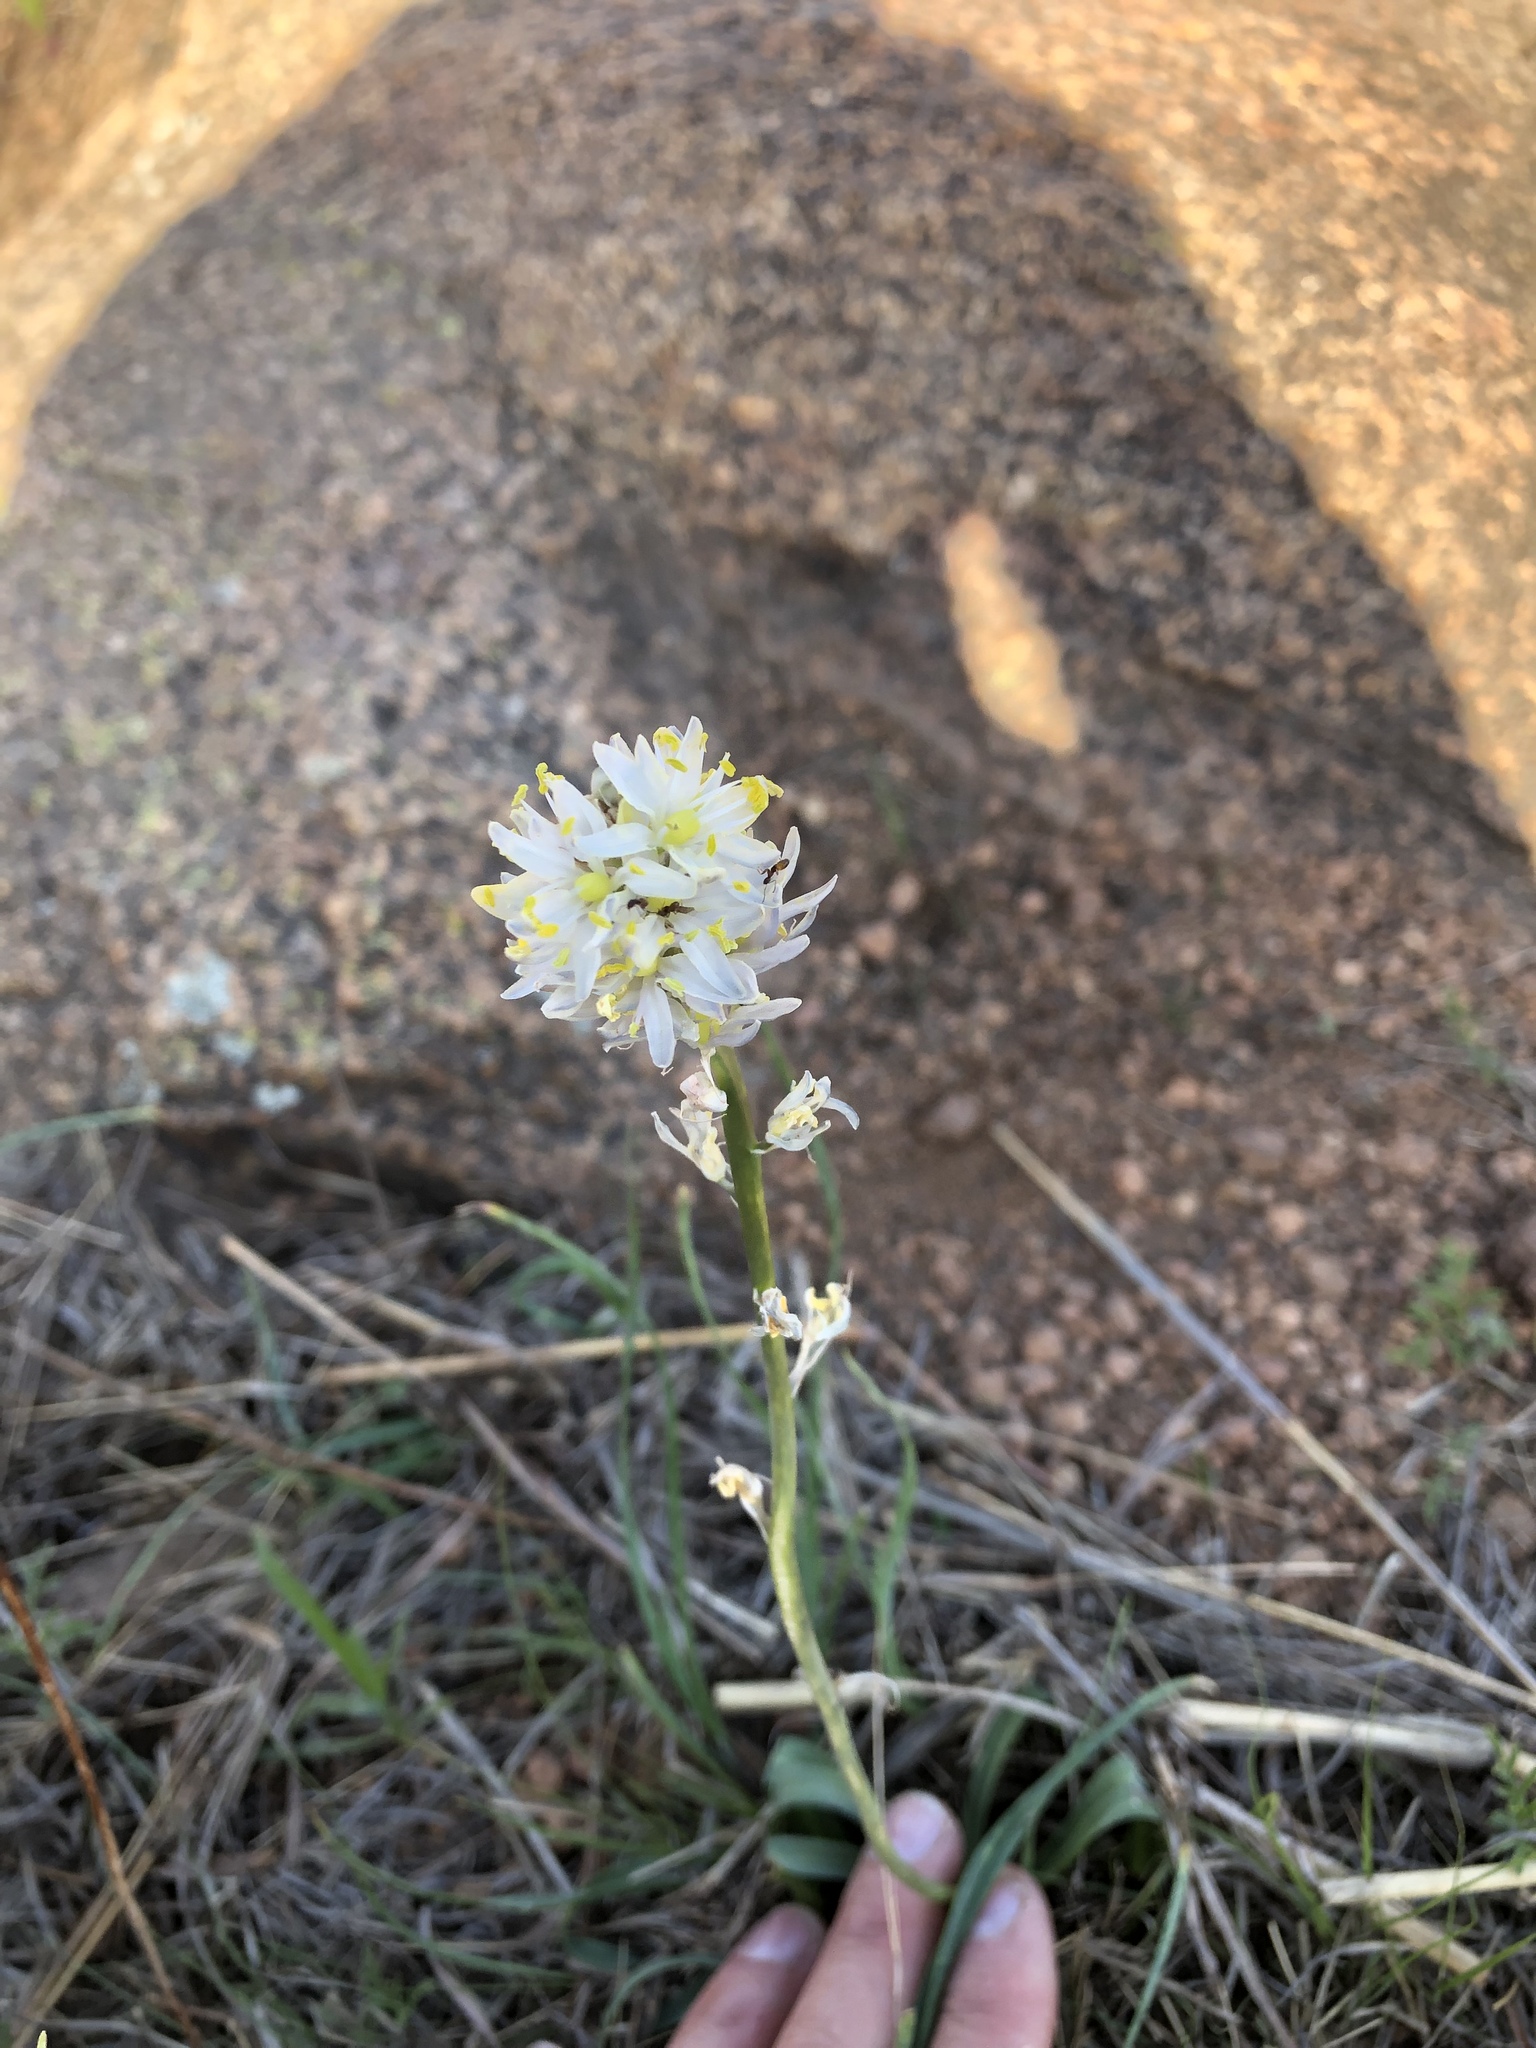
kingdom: Plantae
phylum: Tracheophyta
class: Liliopsida
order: Liliales
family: Melanthiaceae
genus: Toxicoscordion
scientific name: Toxicoscordion nuttallii
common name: Poison sego
